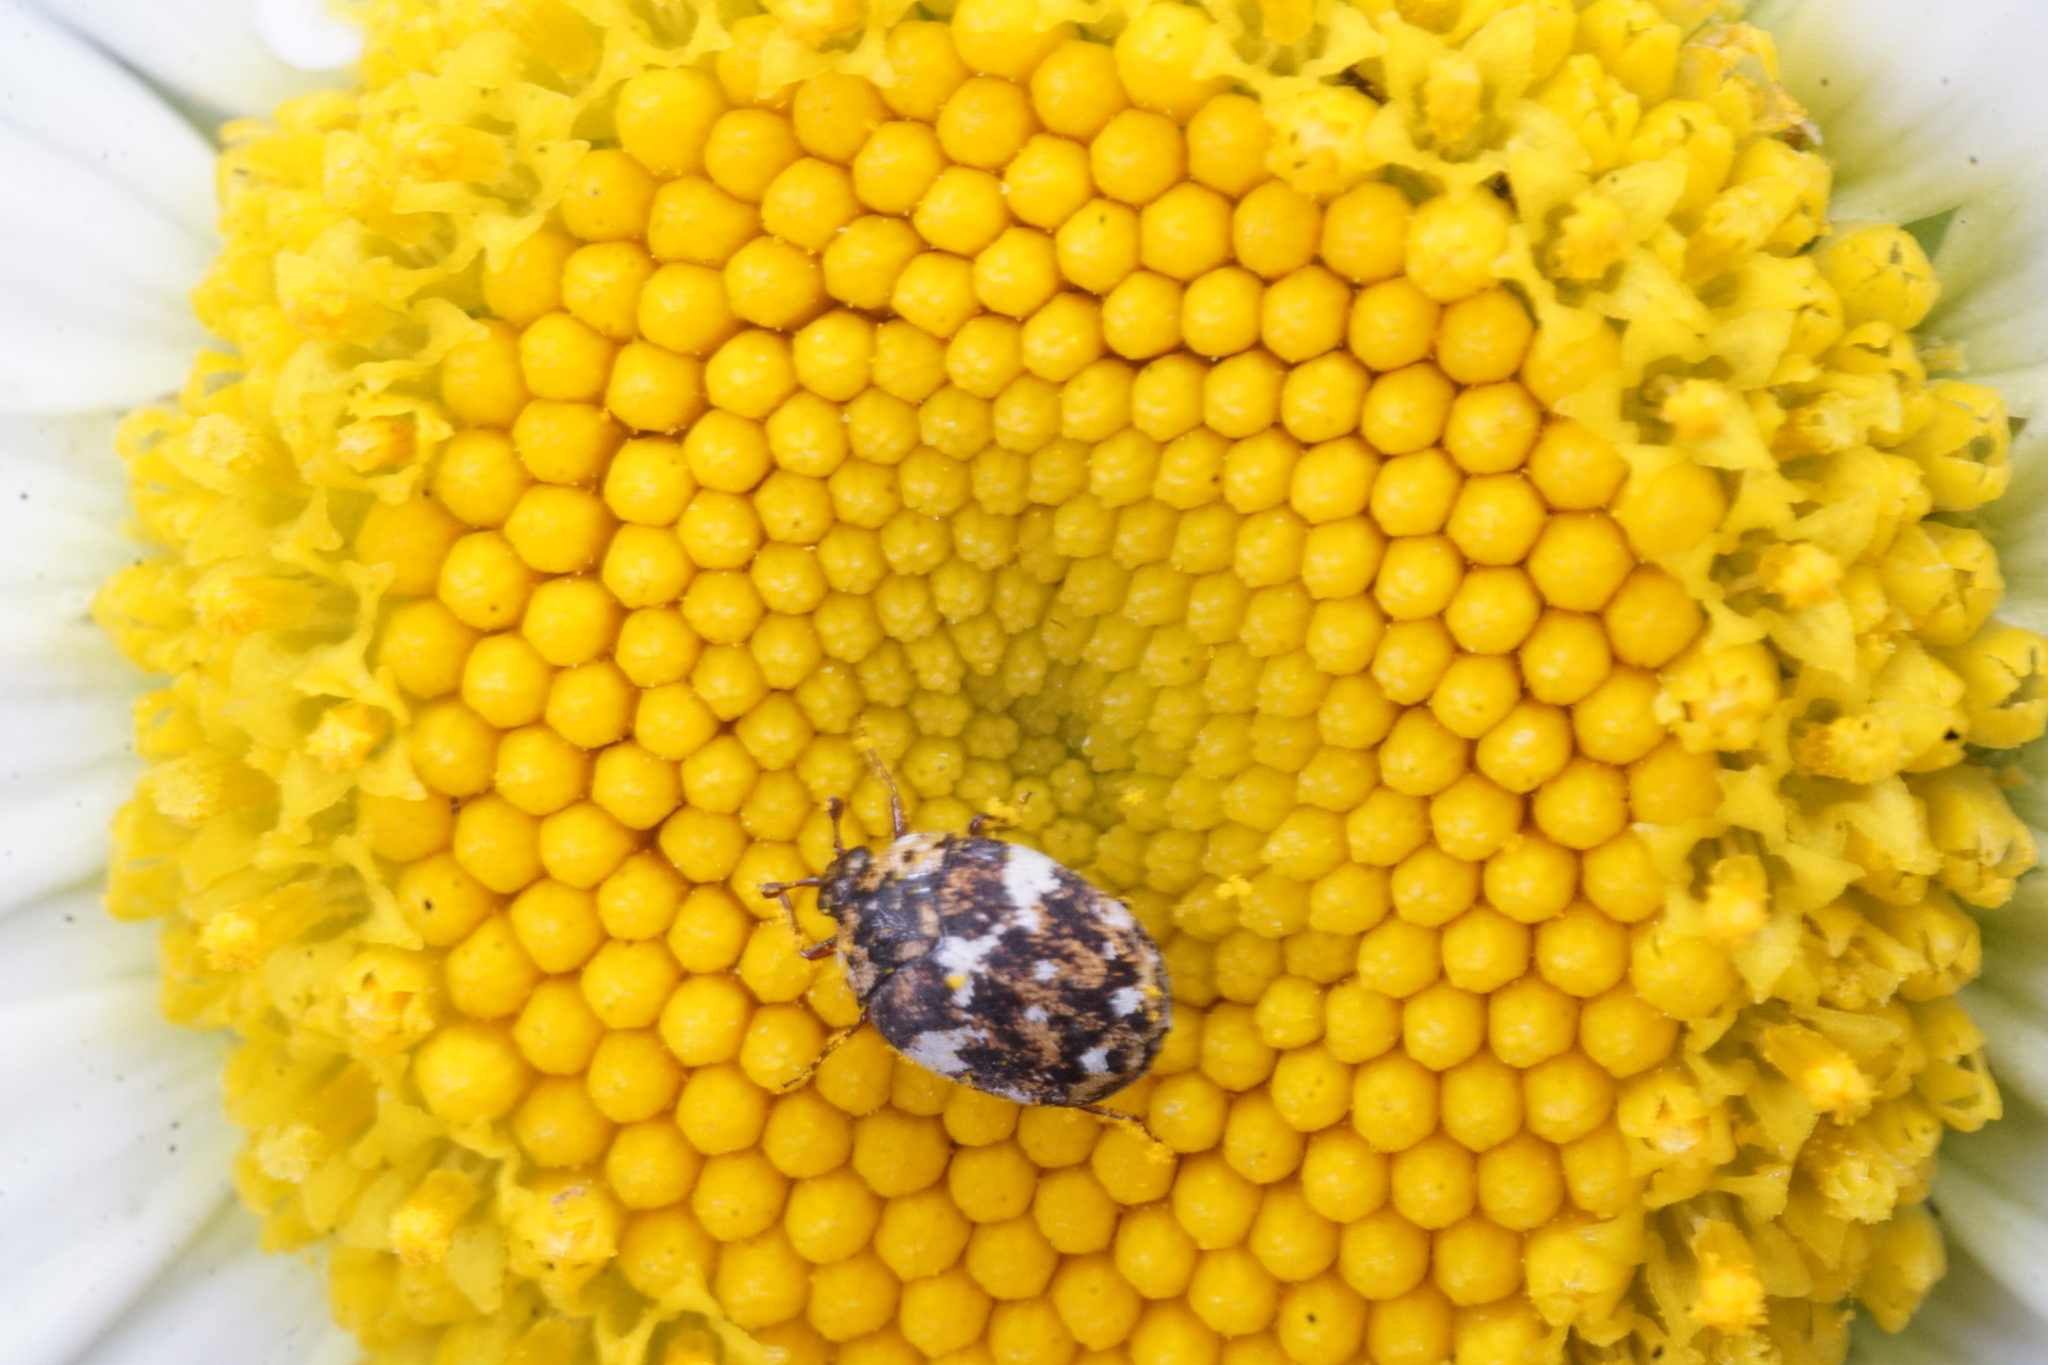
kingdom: Animalia
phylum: Arthropoda
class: Insecta
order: Coleoptera
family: Dermestidae
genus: Anthrenus
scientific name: Anthrenus angustefasciatus
